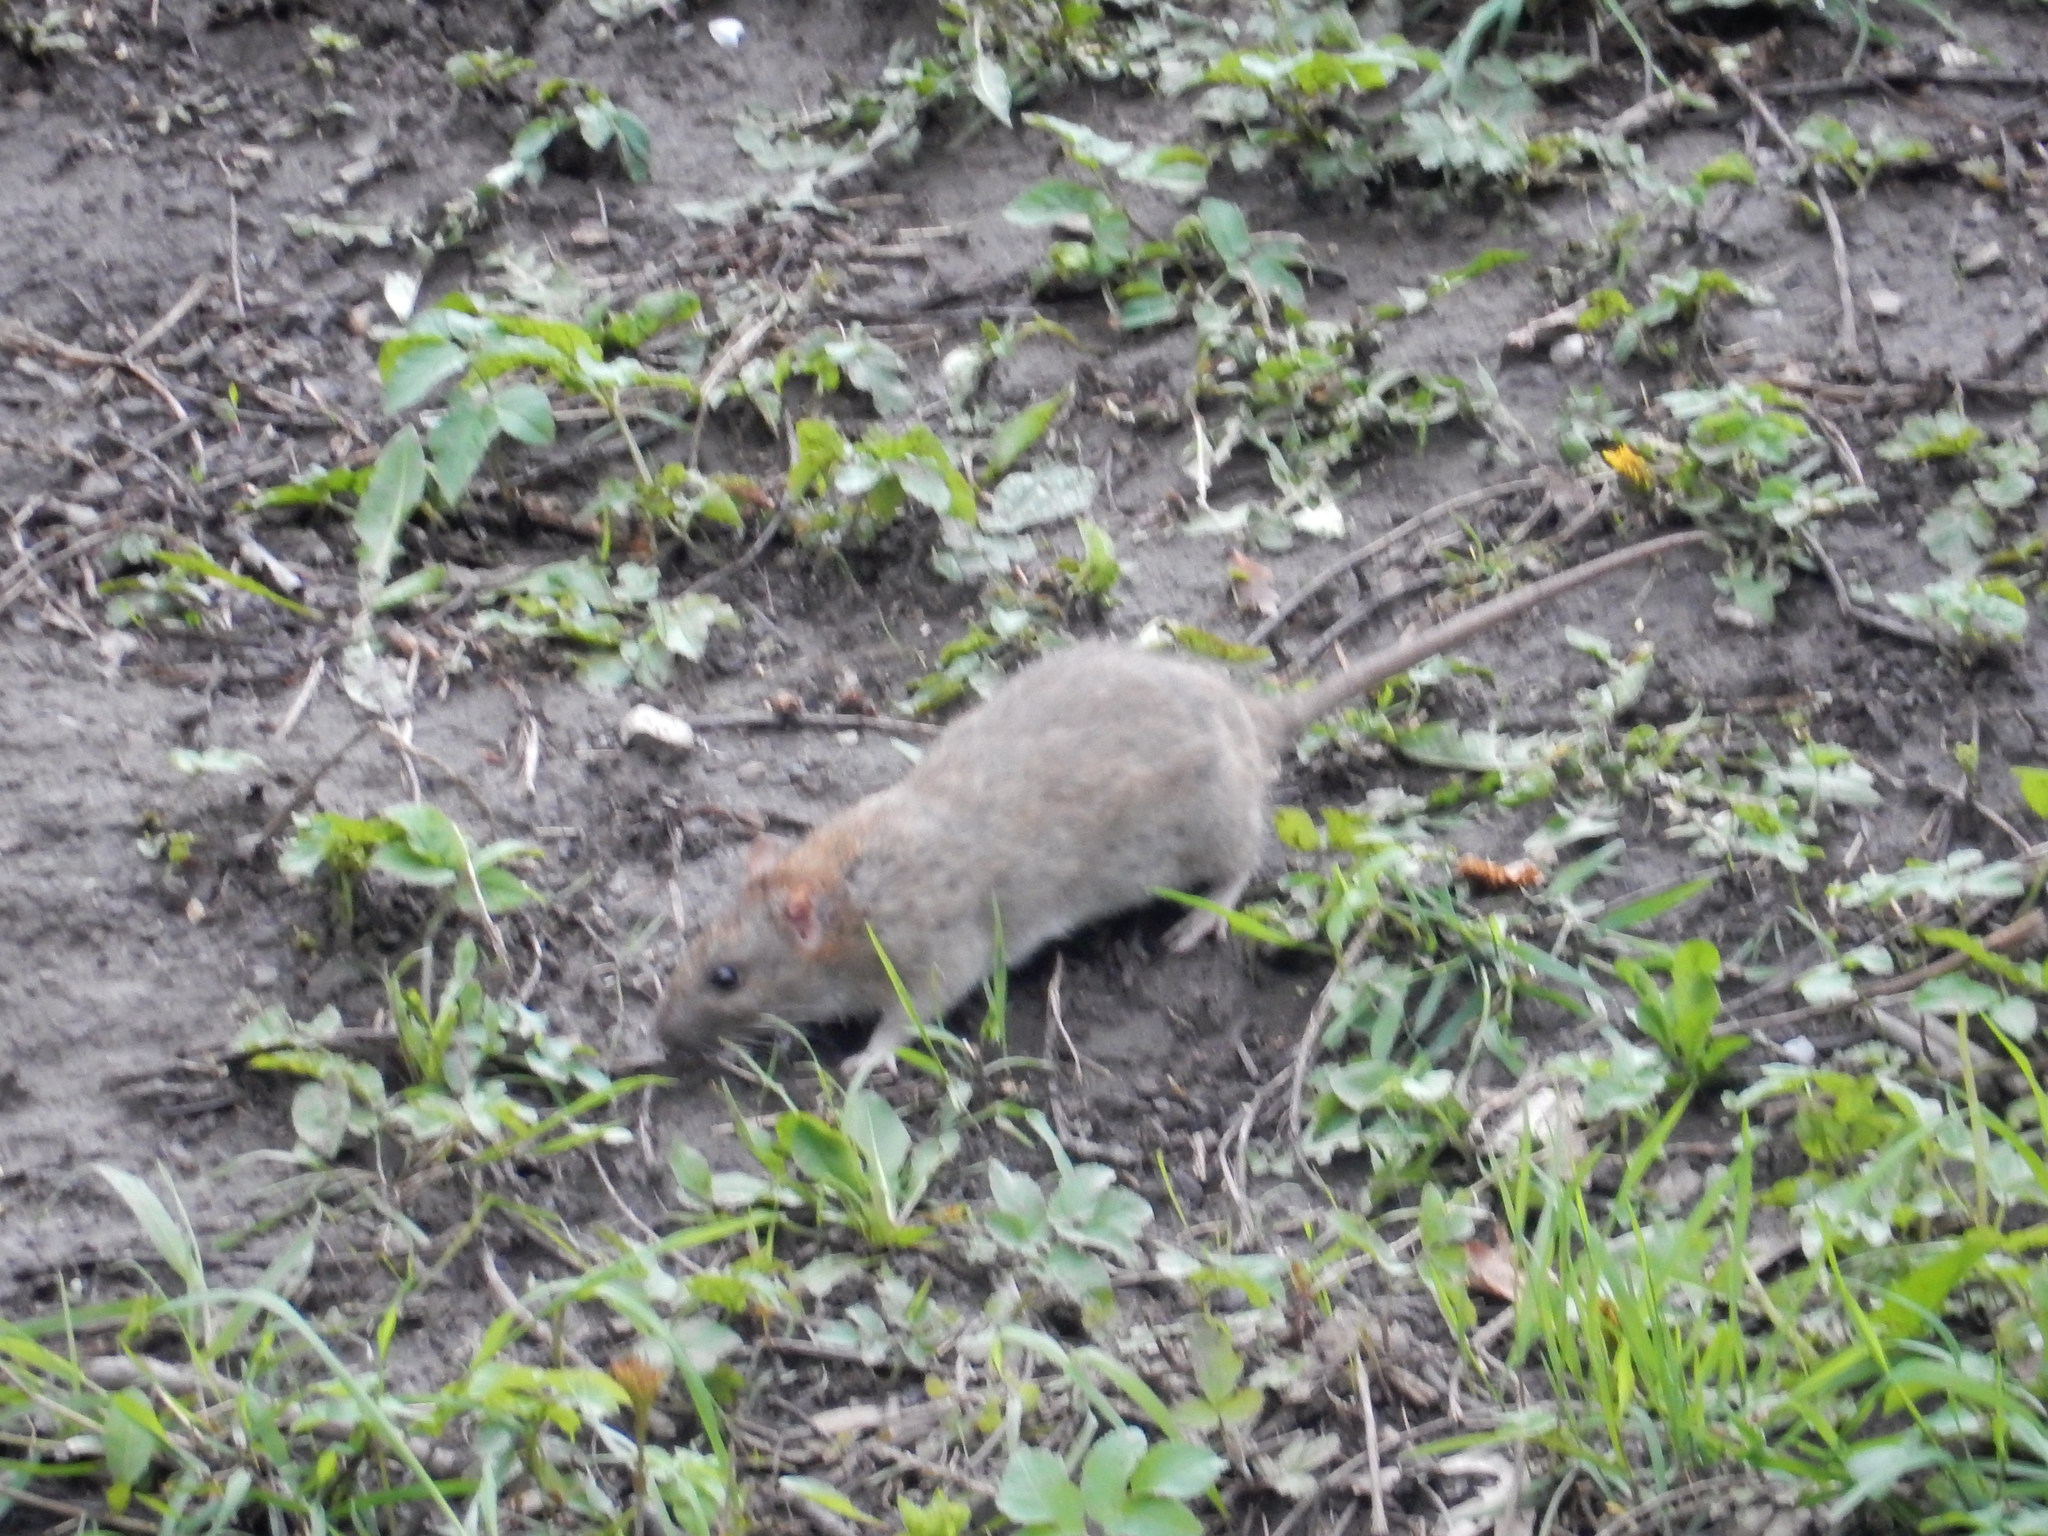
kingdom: Animalia
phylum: Chordata
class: Mammalia
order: Rodentia
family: Muridae
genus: Rattus
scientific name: Rattus norvegicus
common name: Brown rat
